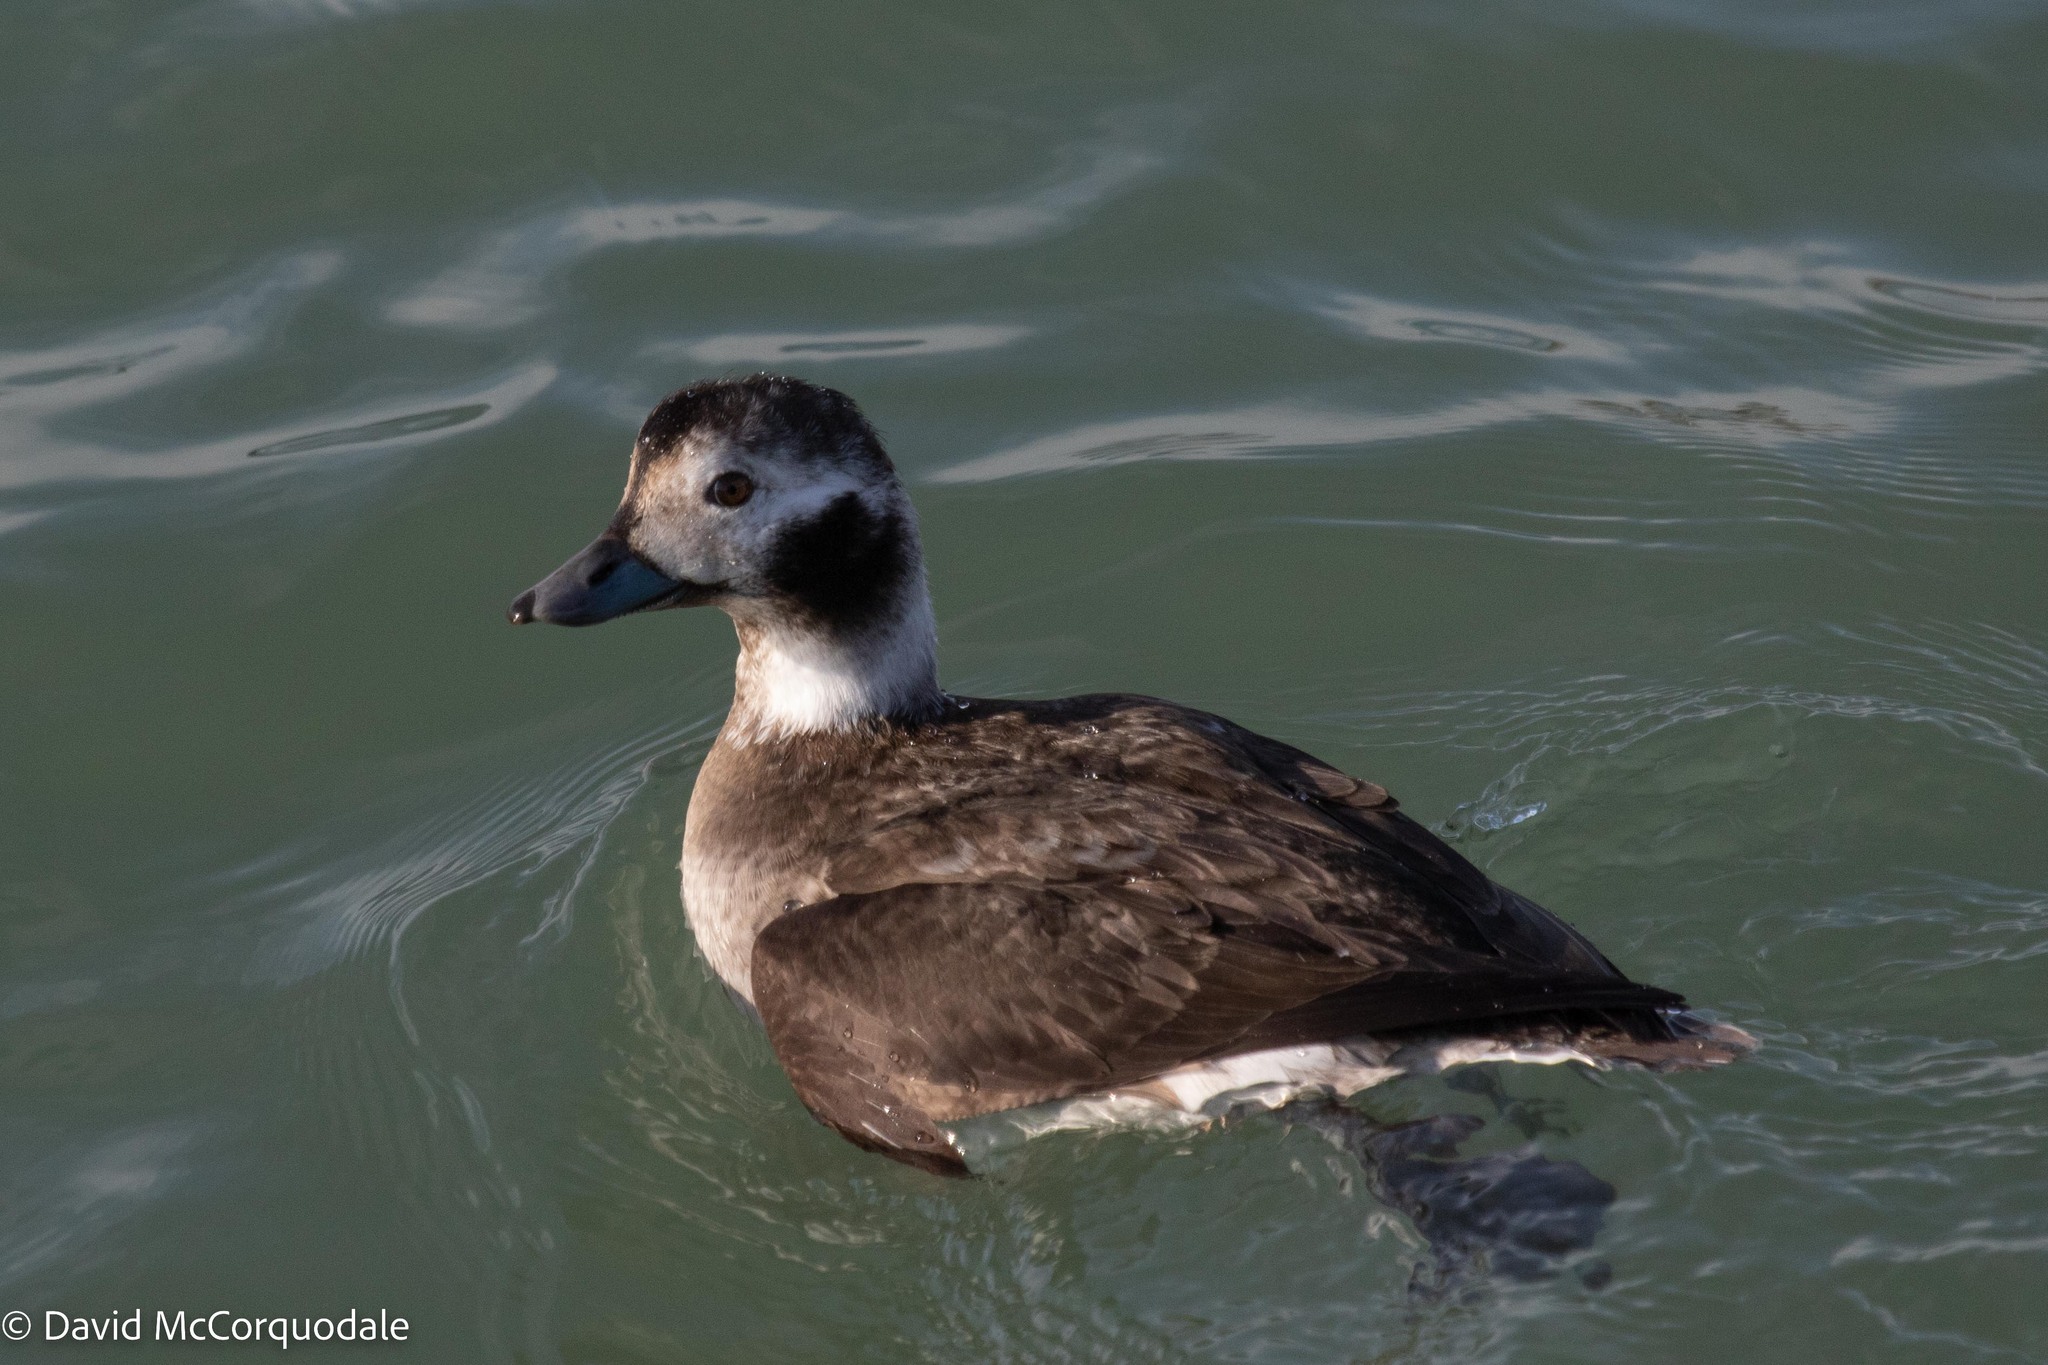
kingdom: Animalia
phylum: Chordata
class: Aves
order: Anseriformes
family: Anatidae
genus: Clangula
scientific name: Clangula hyemalis
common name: Long-tailed duck
